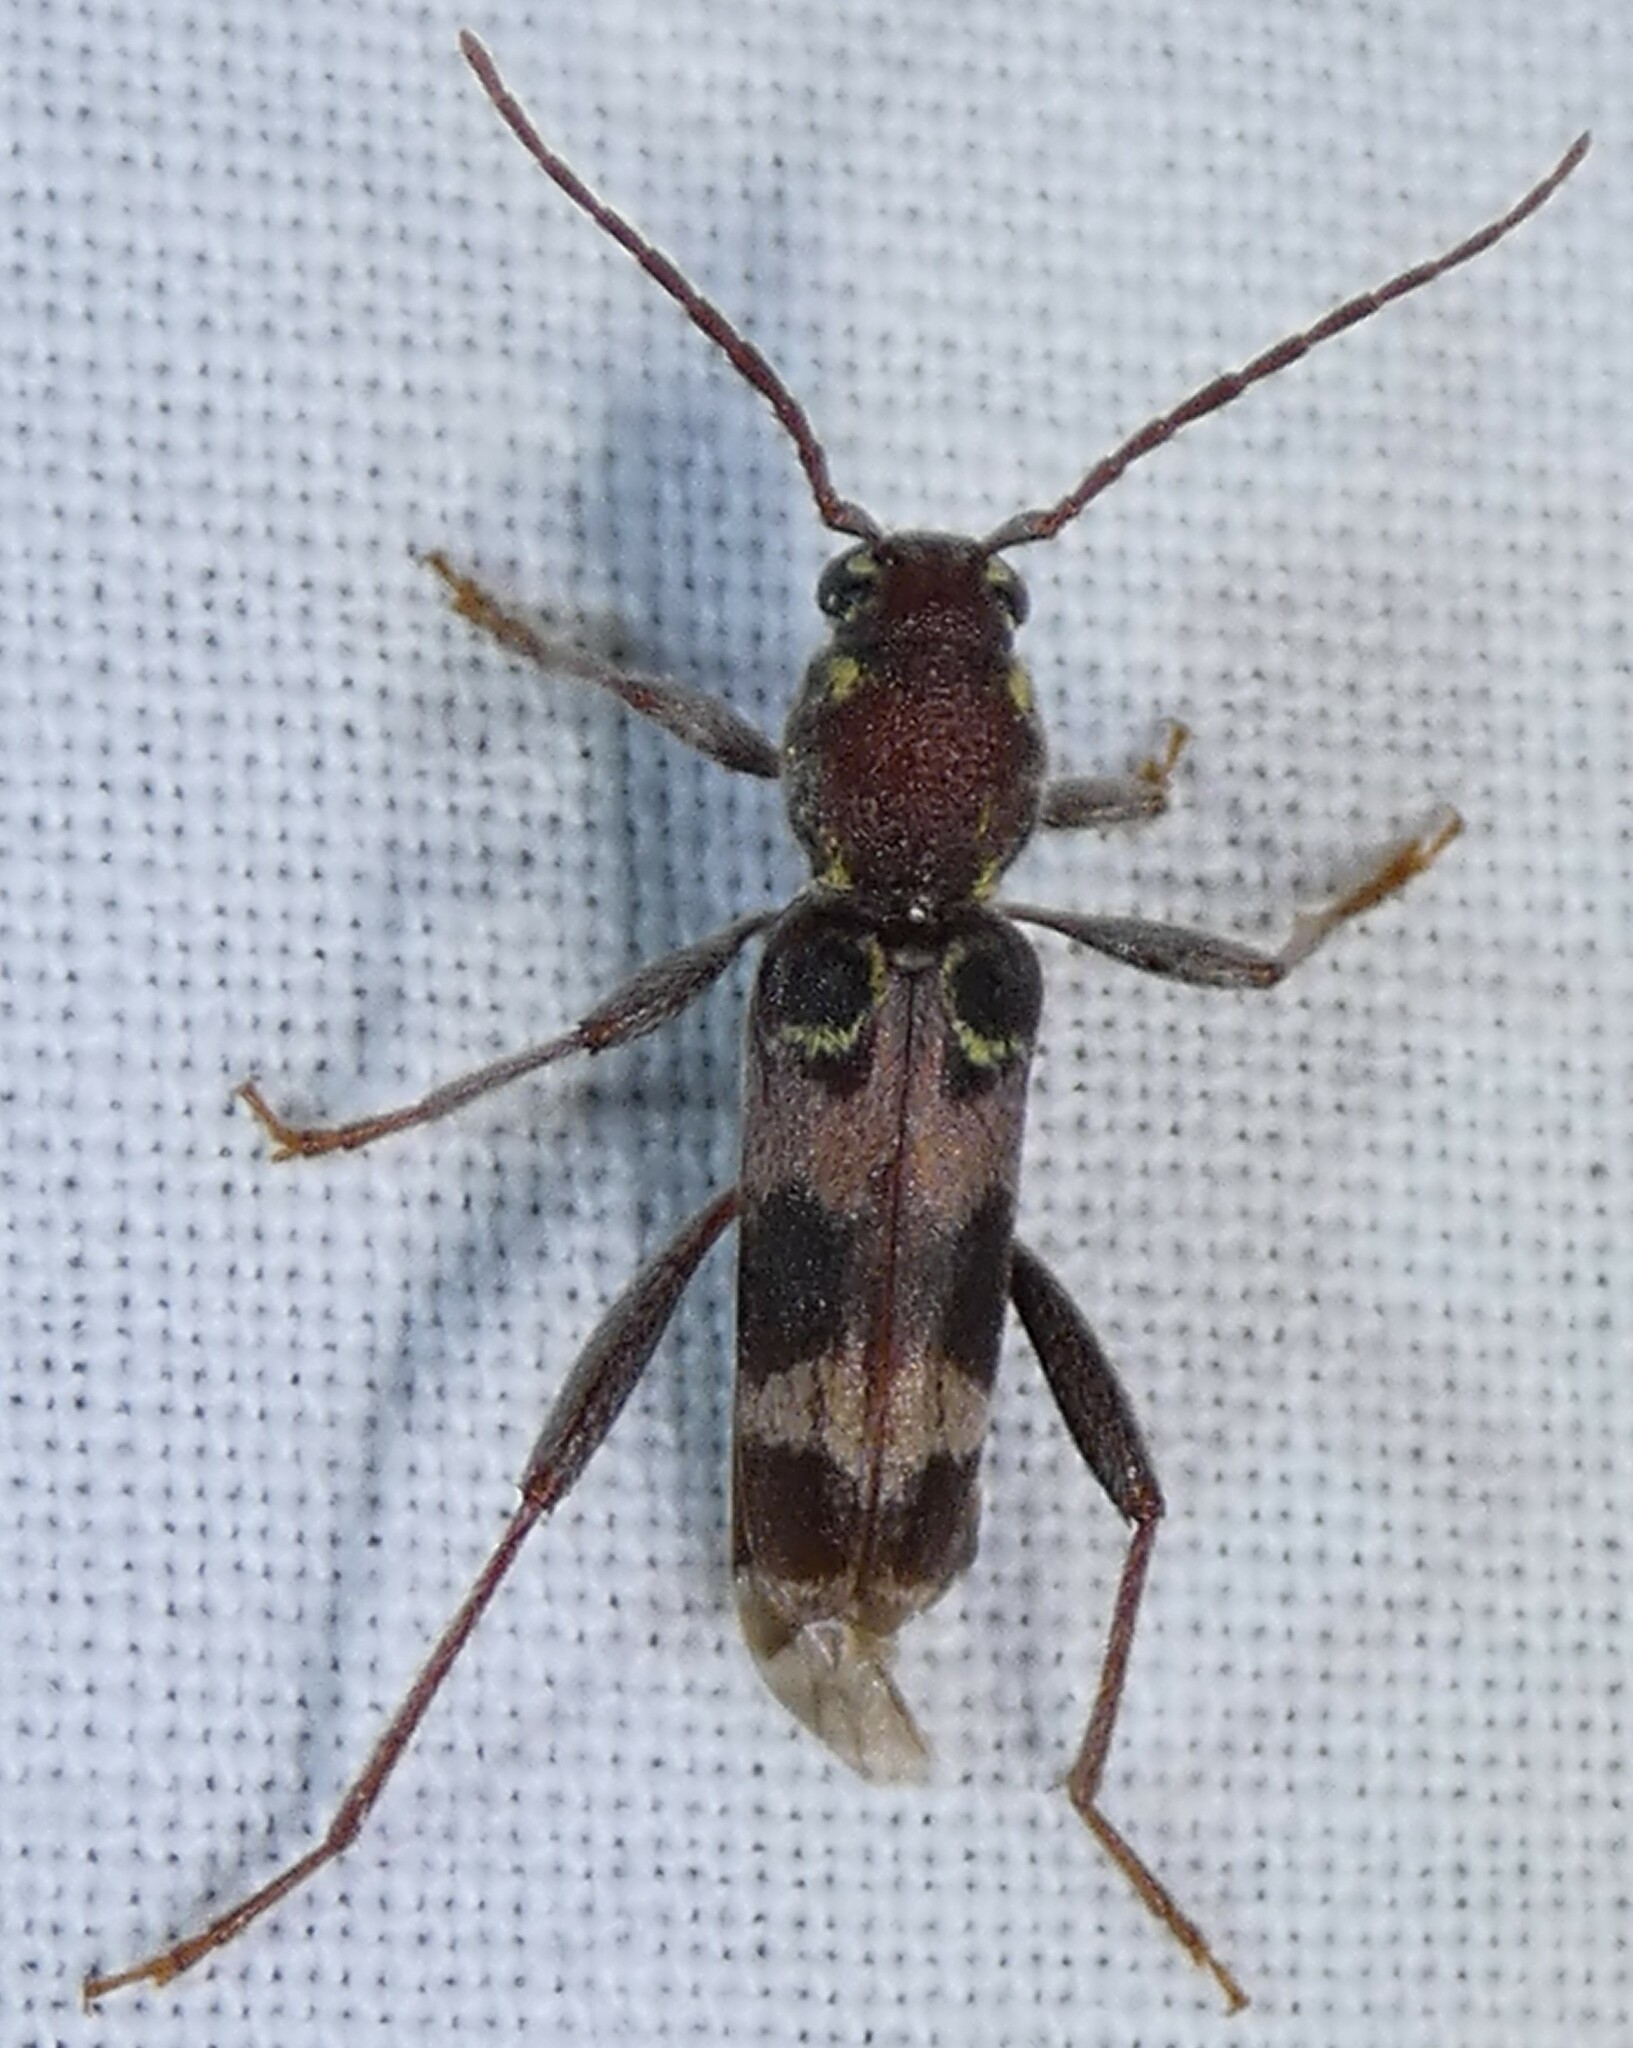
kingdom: Animalia
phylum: Arthropoda
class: Insecta
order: Coleoptera
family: Cerambycidae
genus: Xylotrechus
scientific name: Xylotrechus colonus
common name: Long-horned beetle
